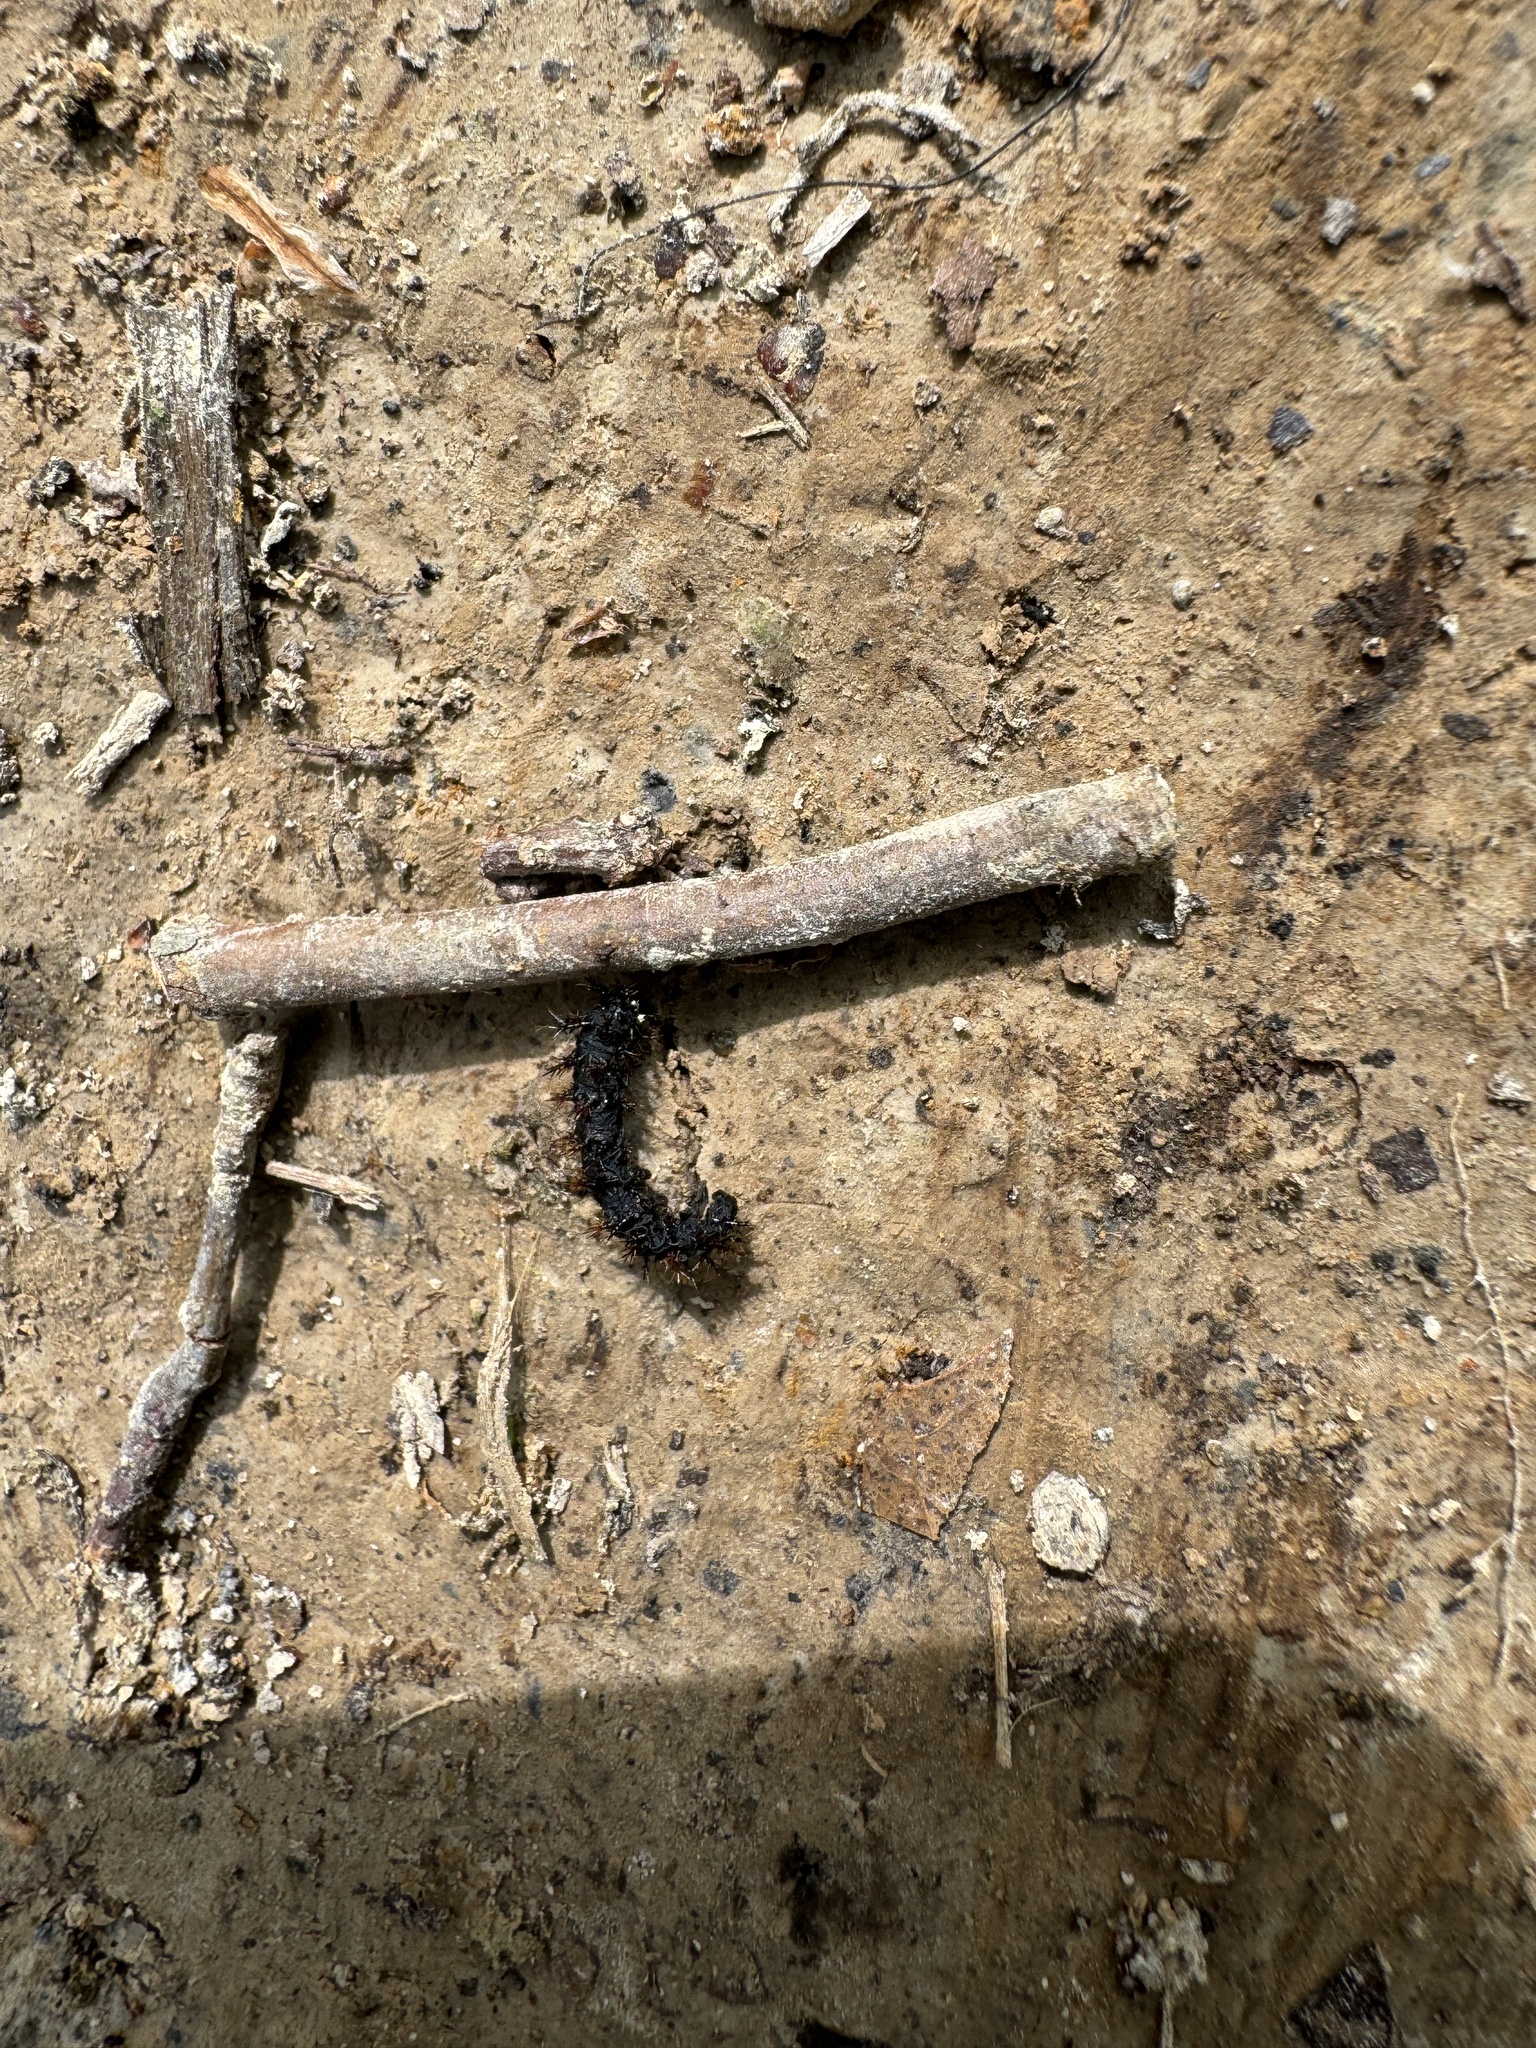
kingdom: Animalia
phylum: Arthropoda
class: Insecta
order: Lepidoptera
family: Saturniidae
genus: Hemileuca
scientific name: Hemileuca maia
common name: Eastern buckmoth
